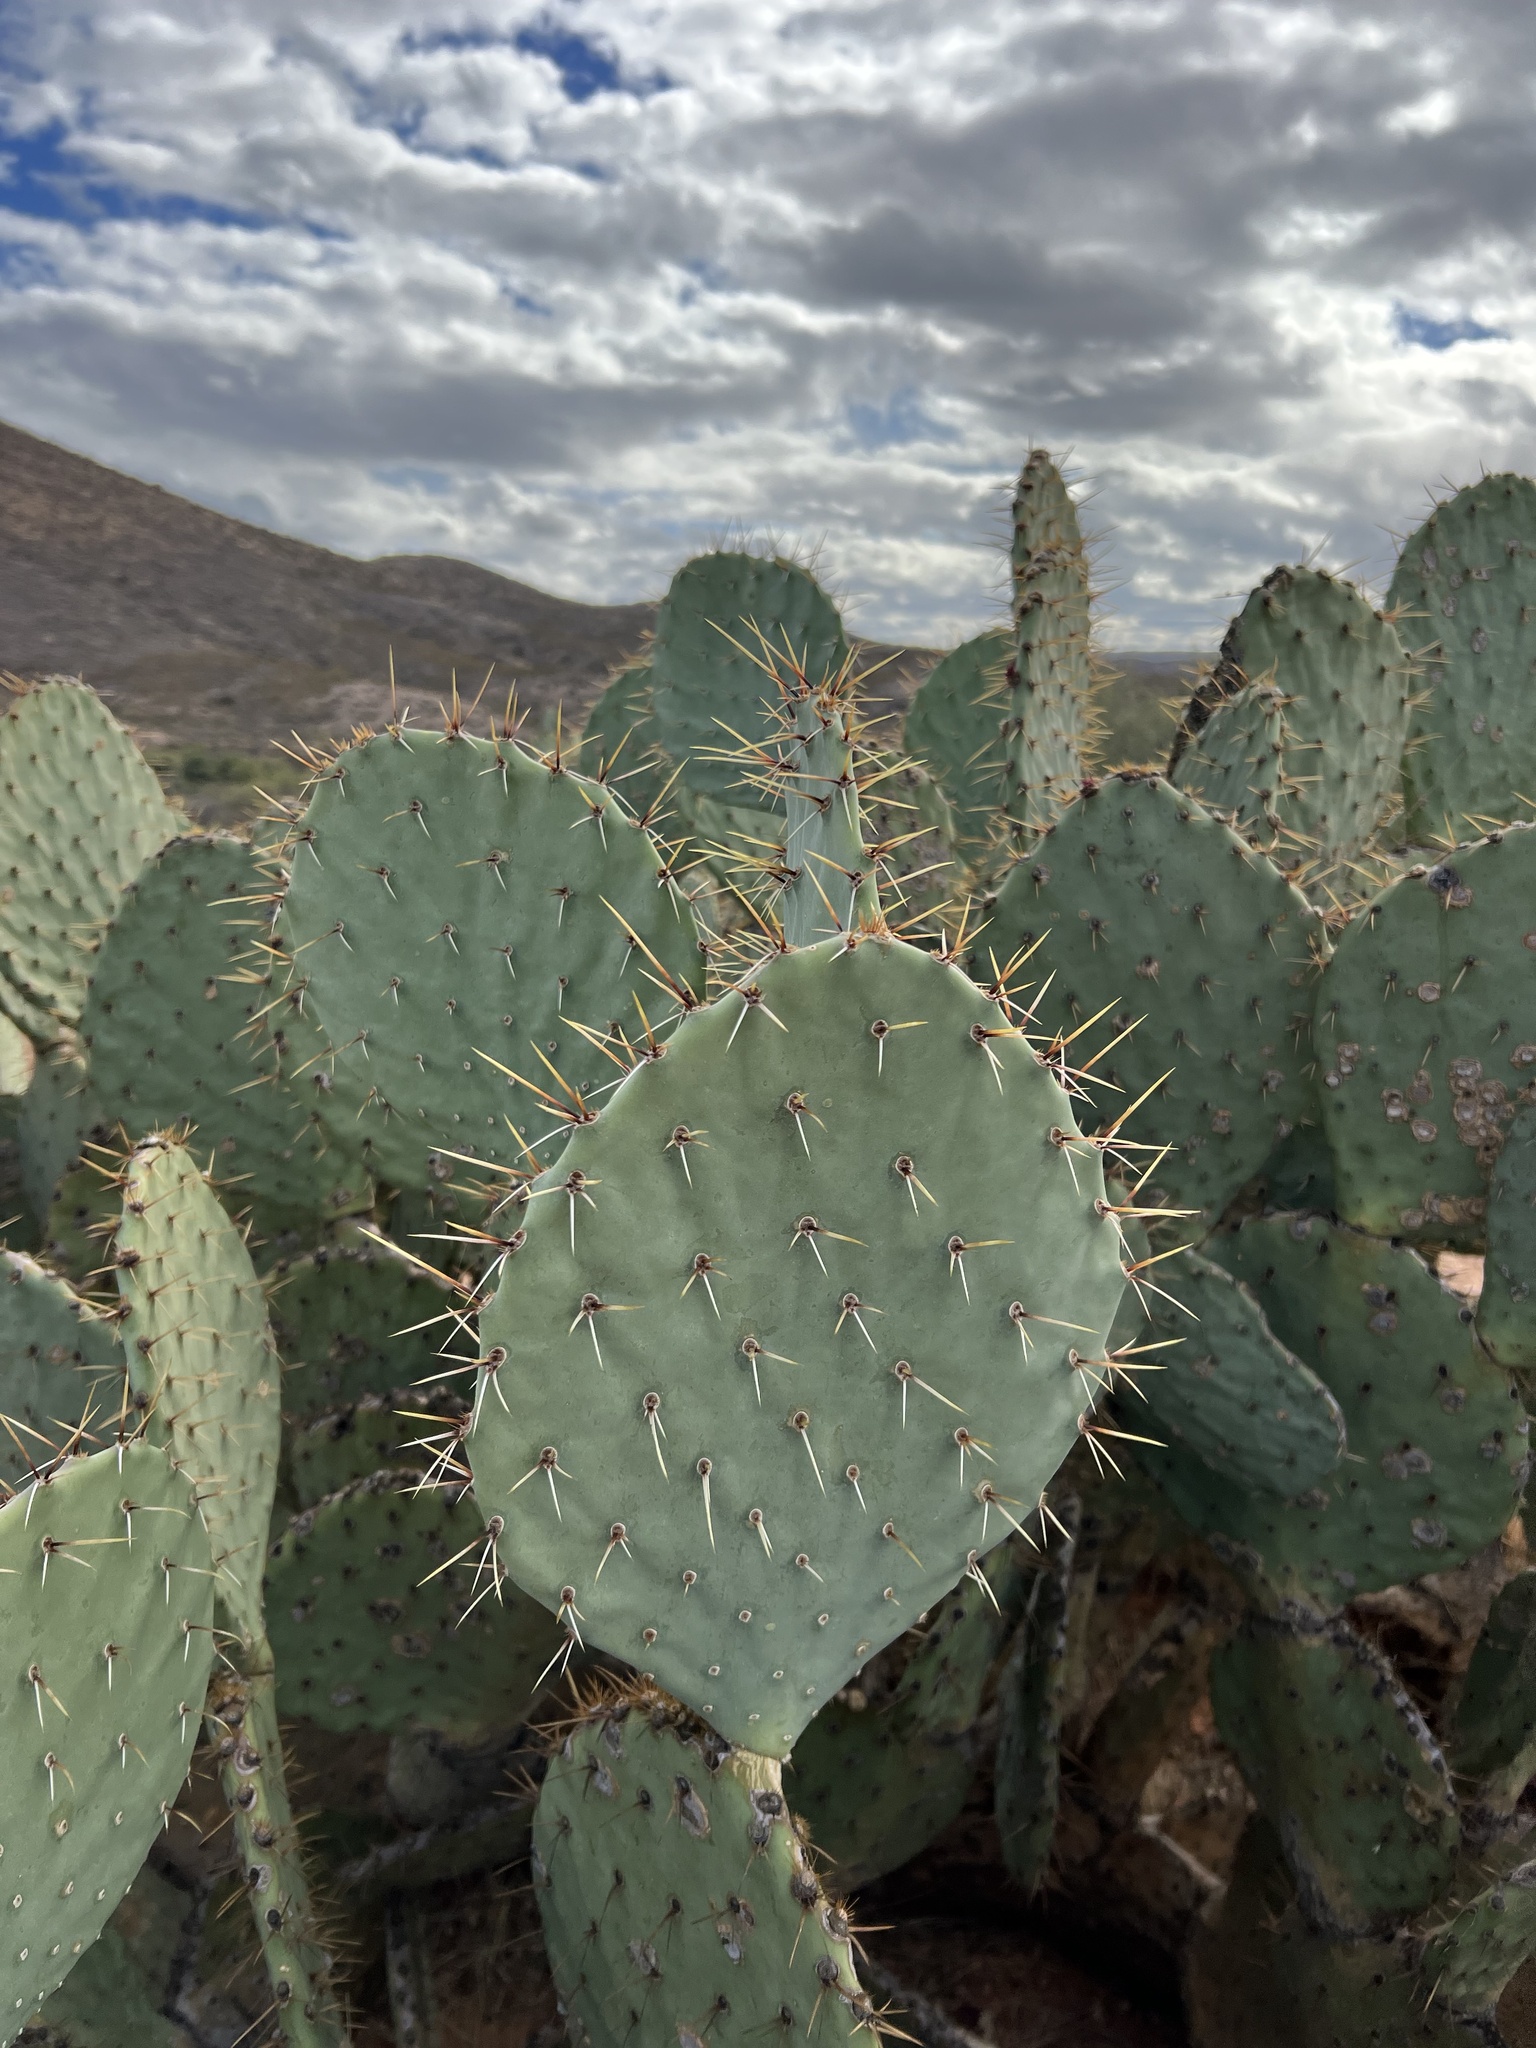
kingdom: Plantae
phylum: Tracheophyta
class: Magnoliopsida
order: Caryophyllales
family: Cactaceae
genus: Opuntia
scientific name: Opuntia engelmannii
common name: Cactus-apple
